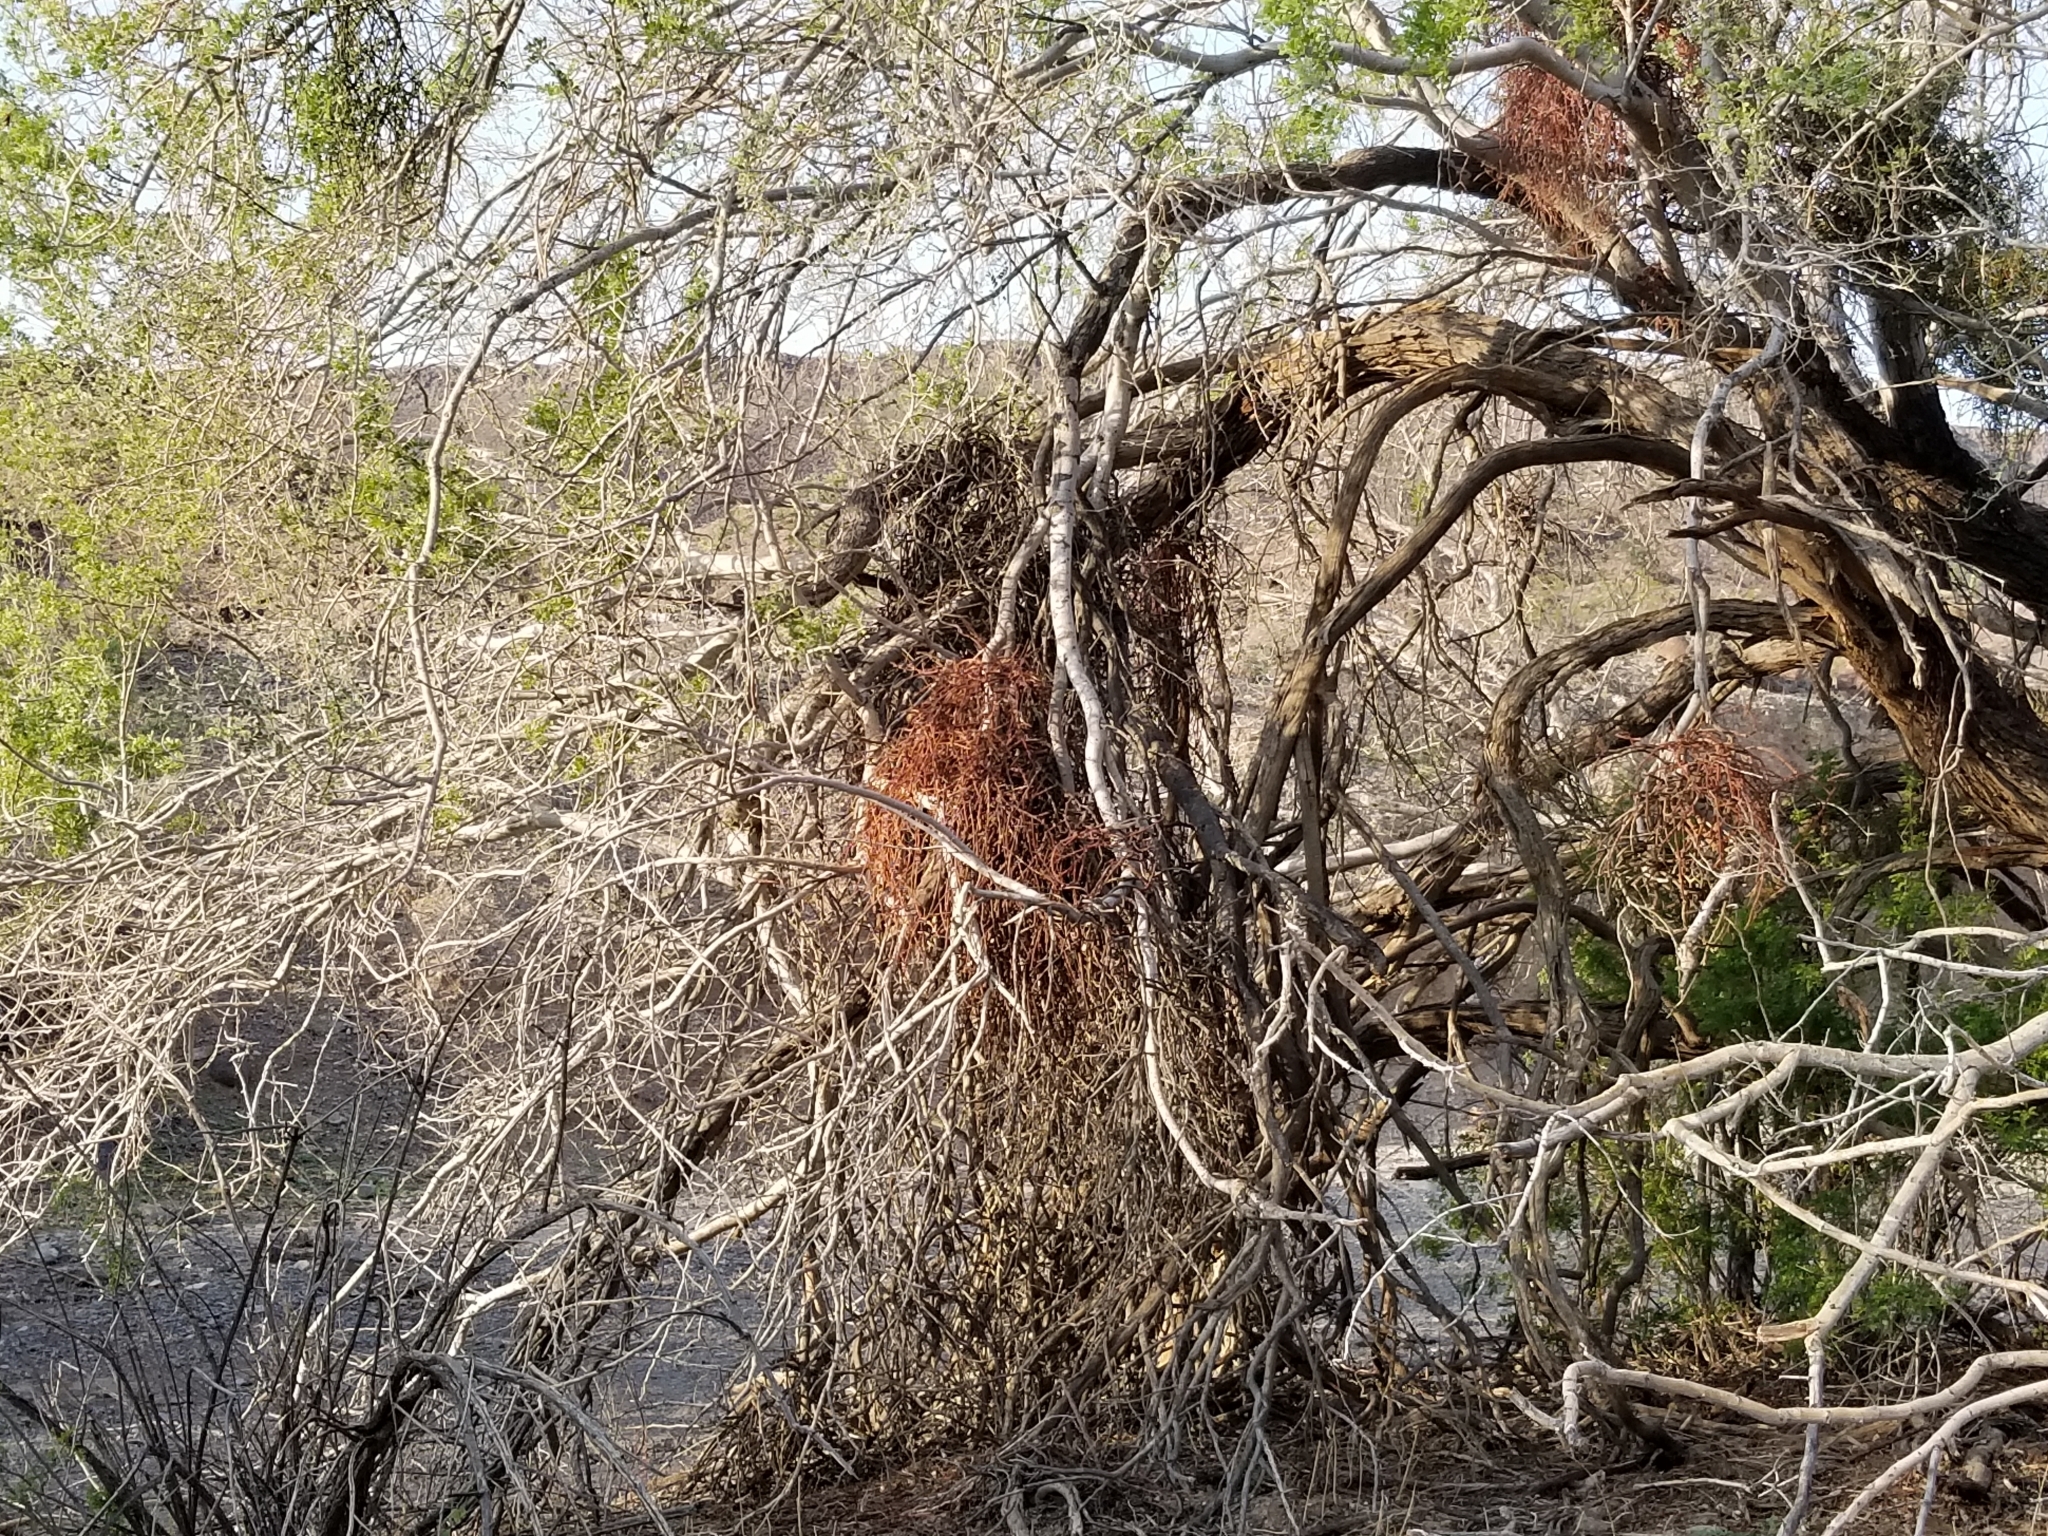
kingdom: Plantae
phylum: Tracheophyta
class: Magnoliopsida
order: Santalales
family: Viscaceae
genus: Phoradendron
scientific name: Phoradendron californicum
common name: Acacia mistletoe
